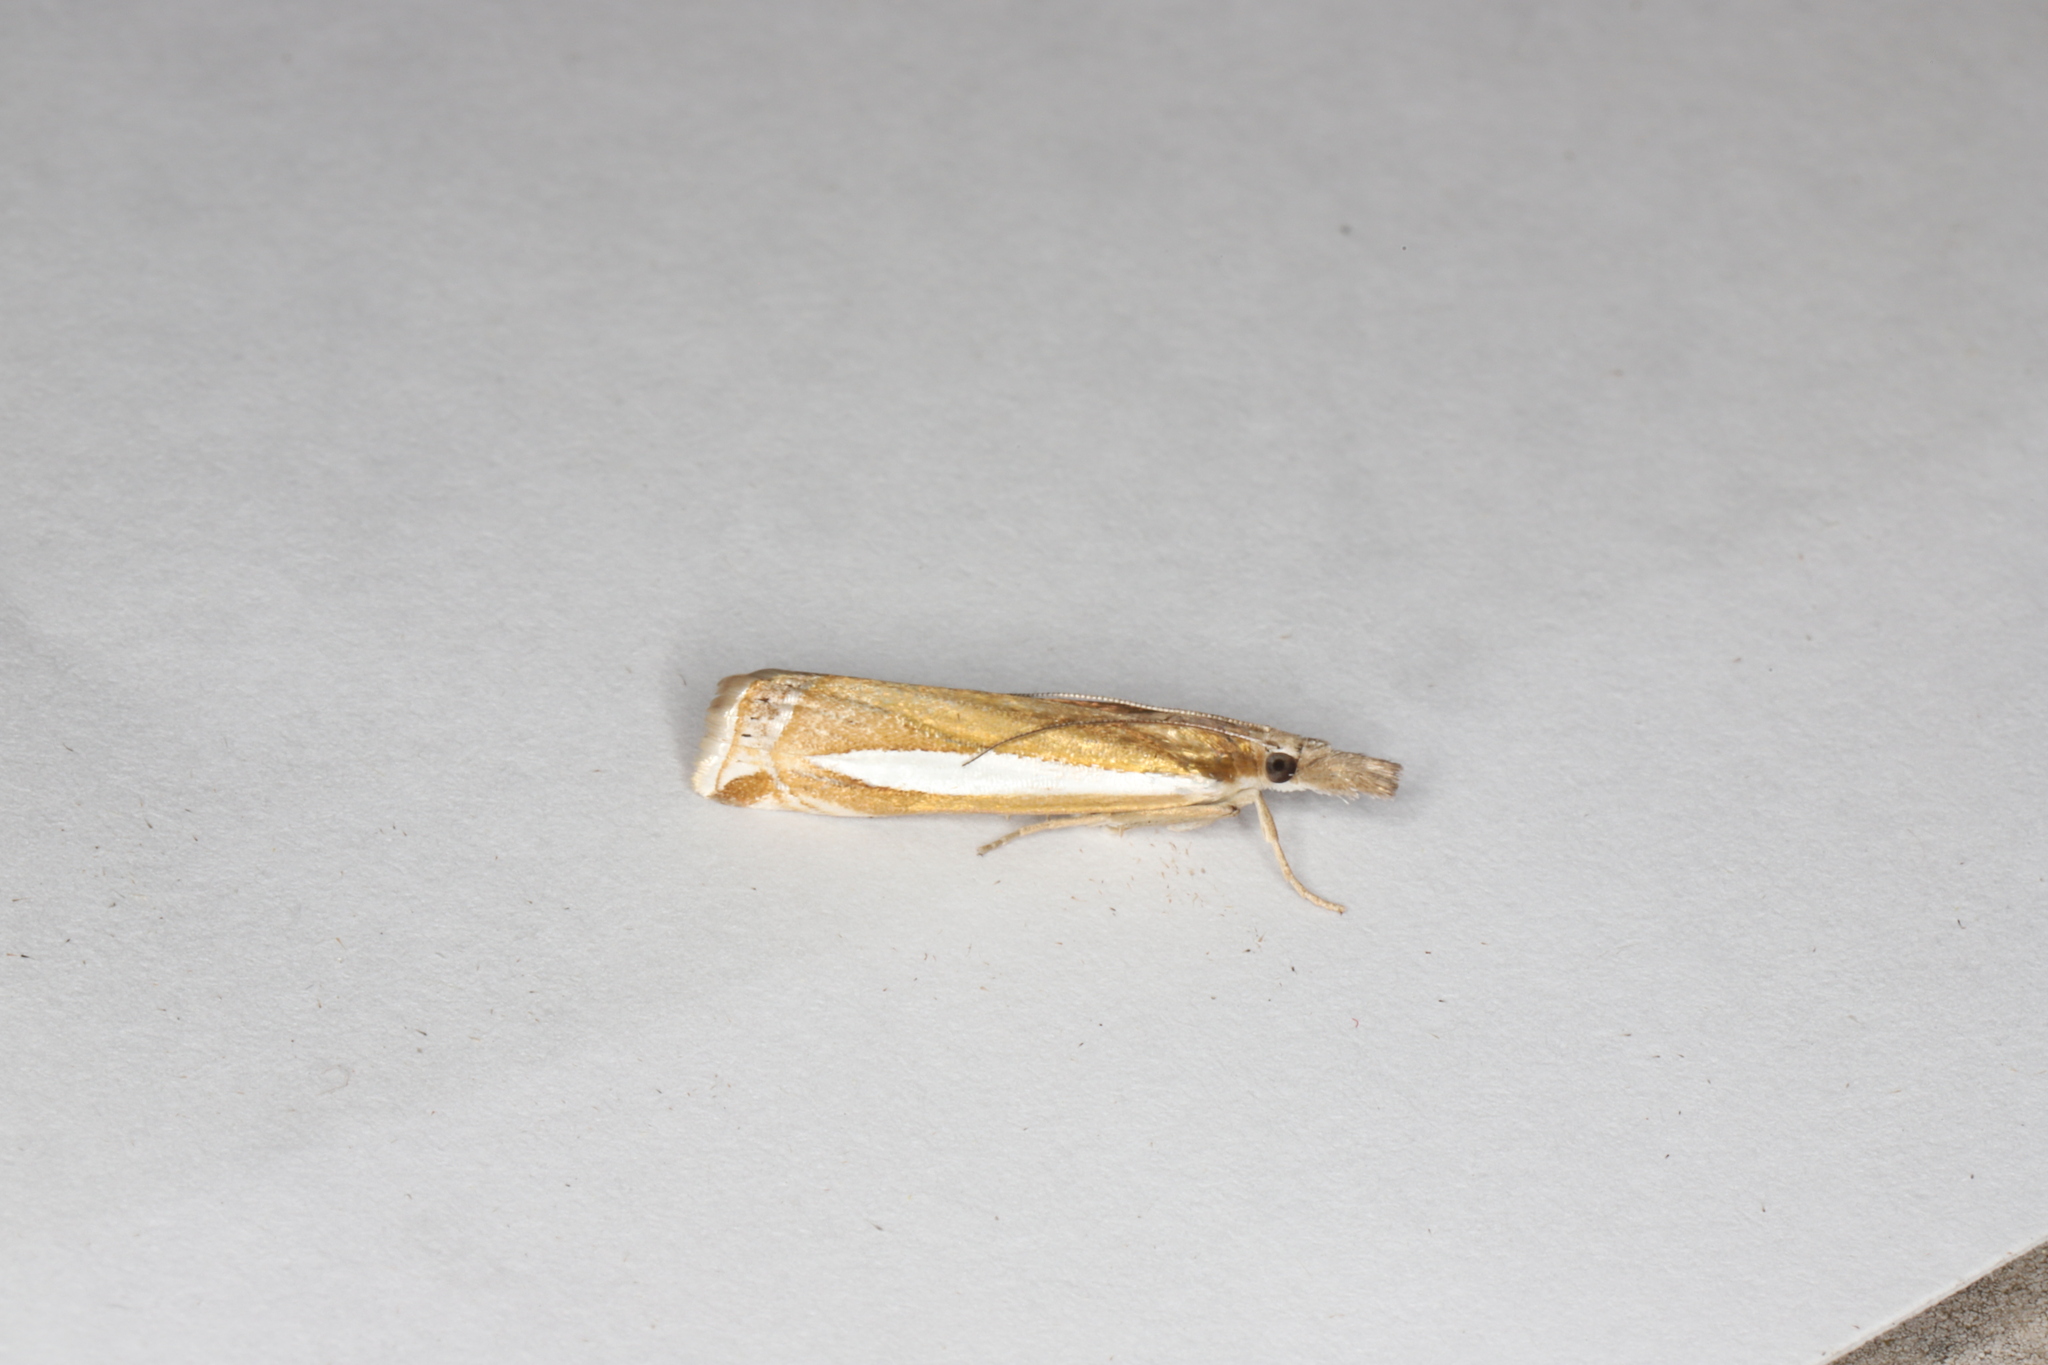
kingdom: Animalia
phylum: Arthropoda
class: Insecta
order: Lepidoptera
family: Crambidae
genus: Crambus
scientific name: Crambus praefectellus
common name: Common grass-veneer
